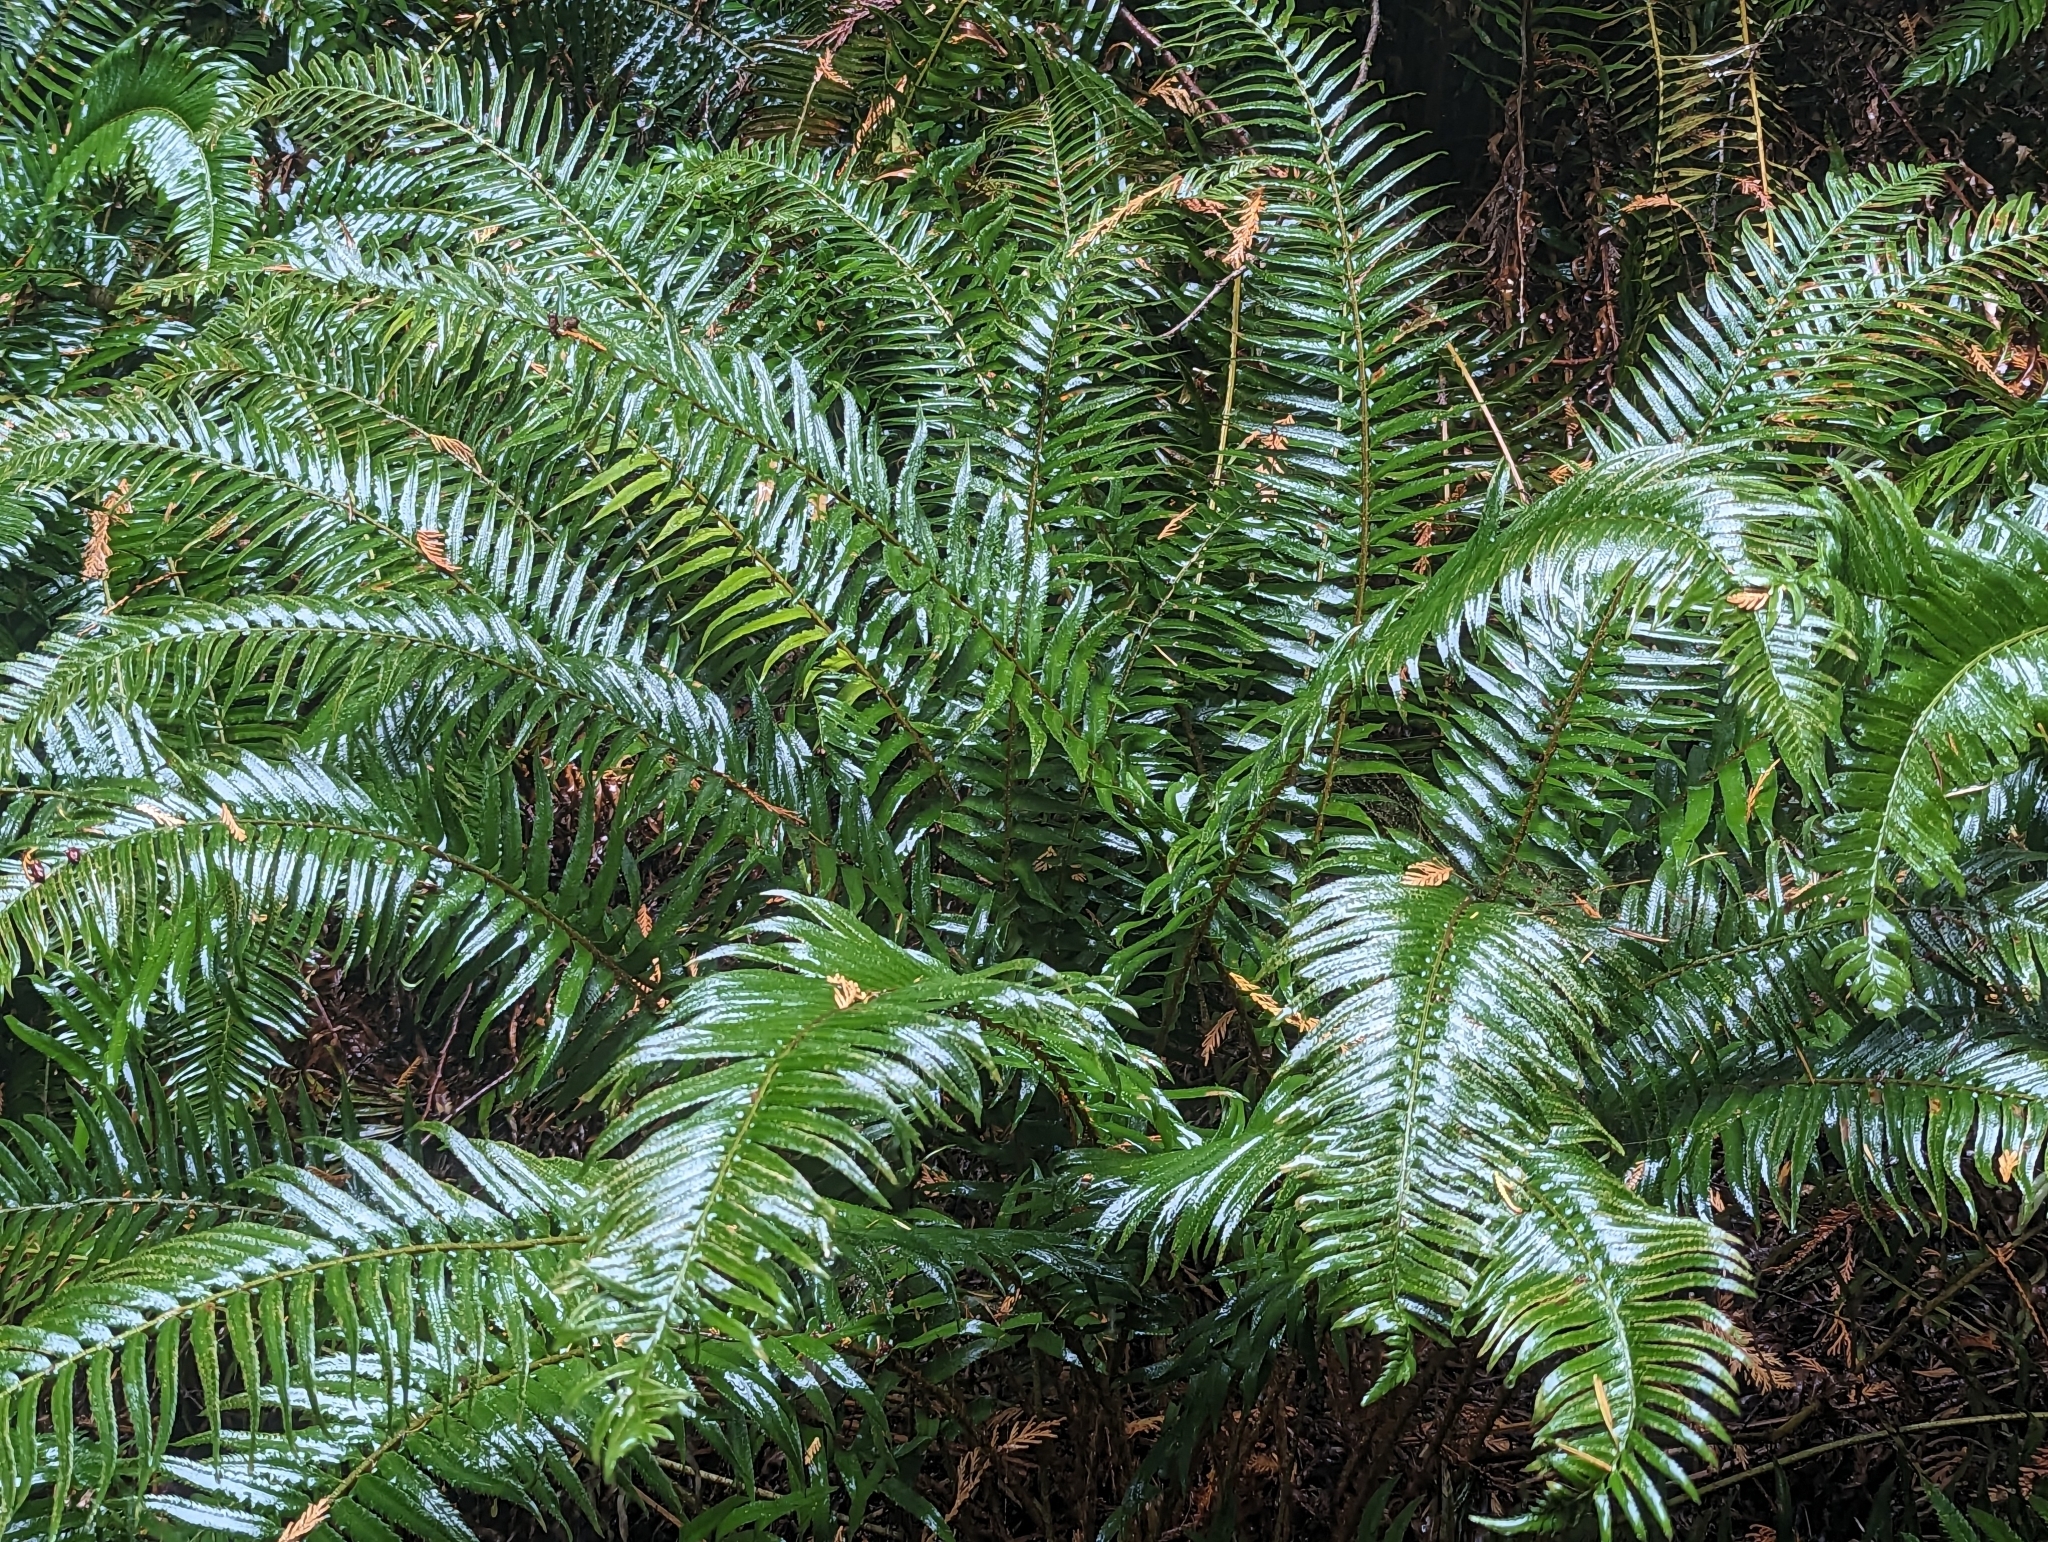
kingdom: Plantae
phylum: Tracheophyta
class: Polypodiopsida
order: Polypodiales
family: Dryopteridaceae
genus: Polystichum
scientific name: Polystichum munitum
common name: Western sword-fern
